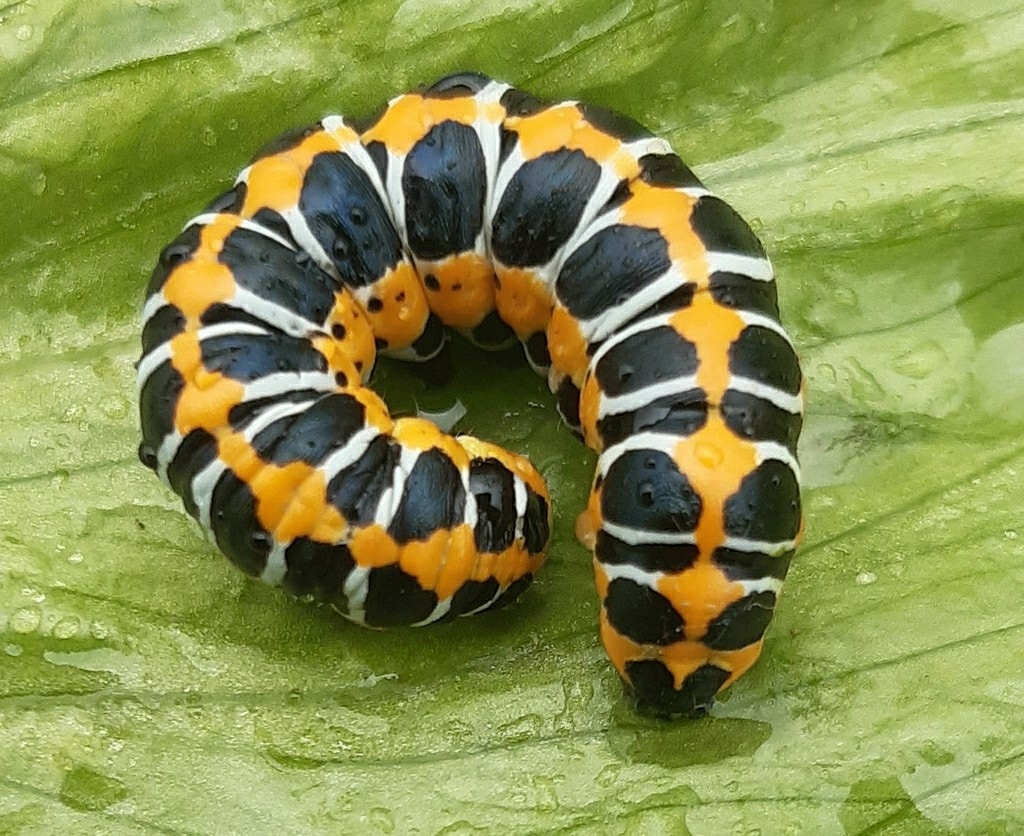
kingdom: Animalia
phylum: Arthropoda
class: Insecta
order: Lepidoptera
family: Noctuidae
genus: Cucullia
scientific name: Cucullia lactucae
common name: Lettuce shark
